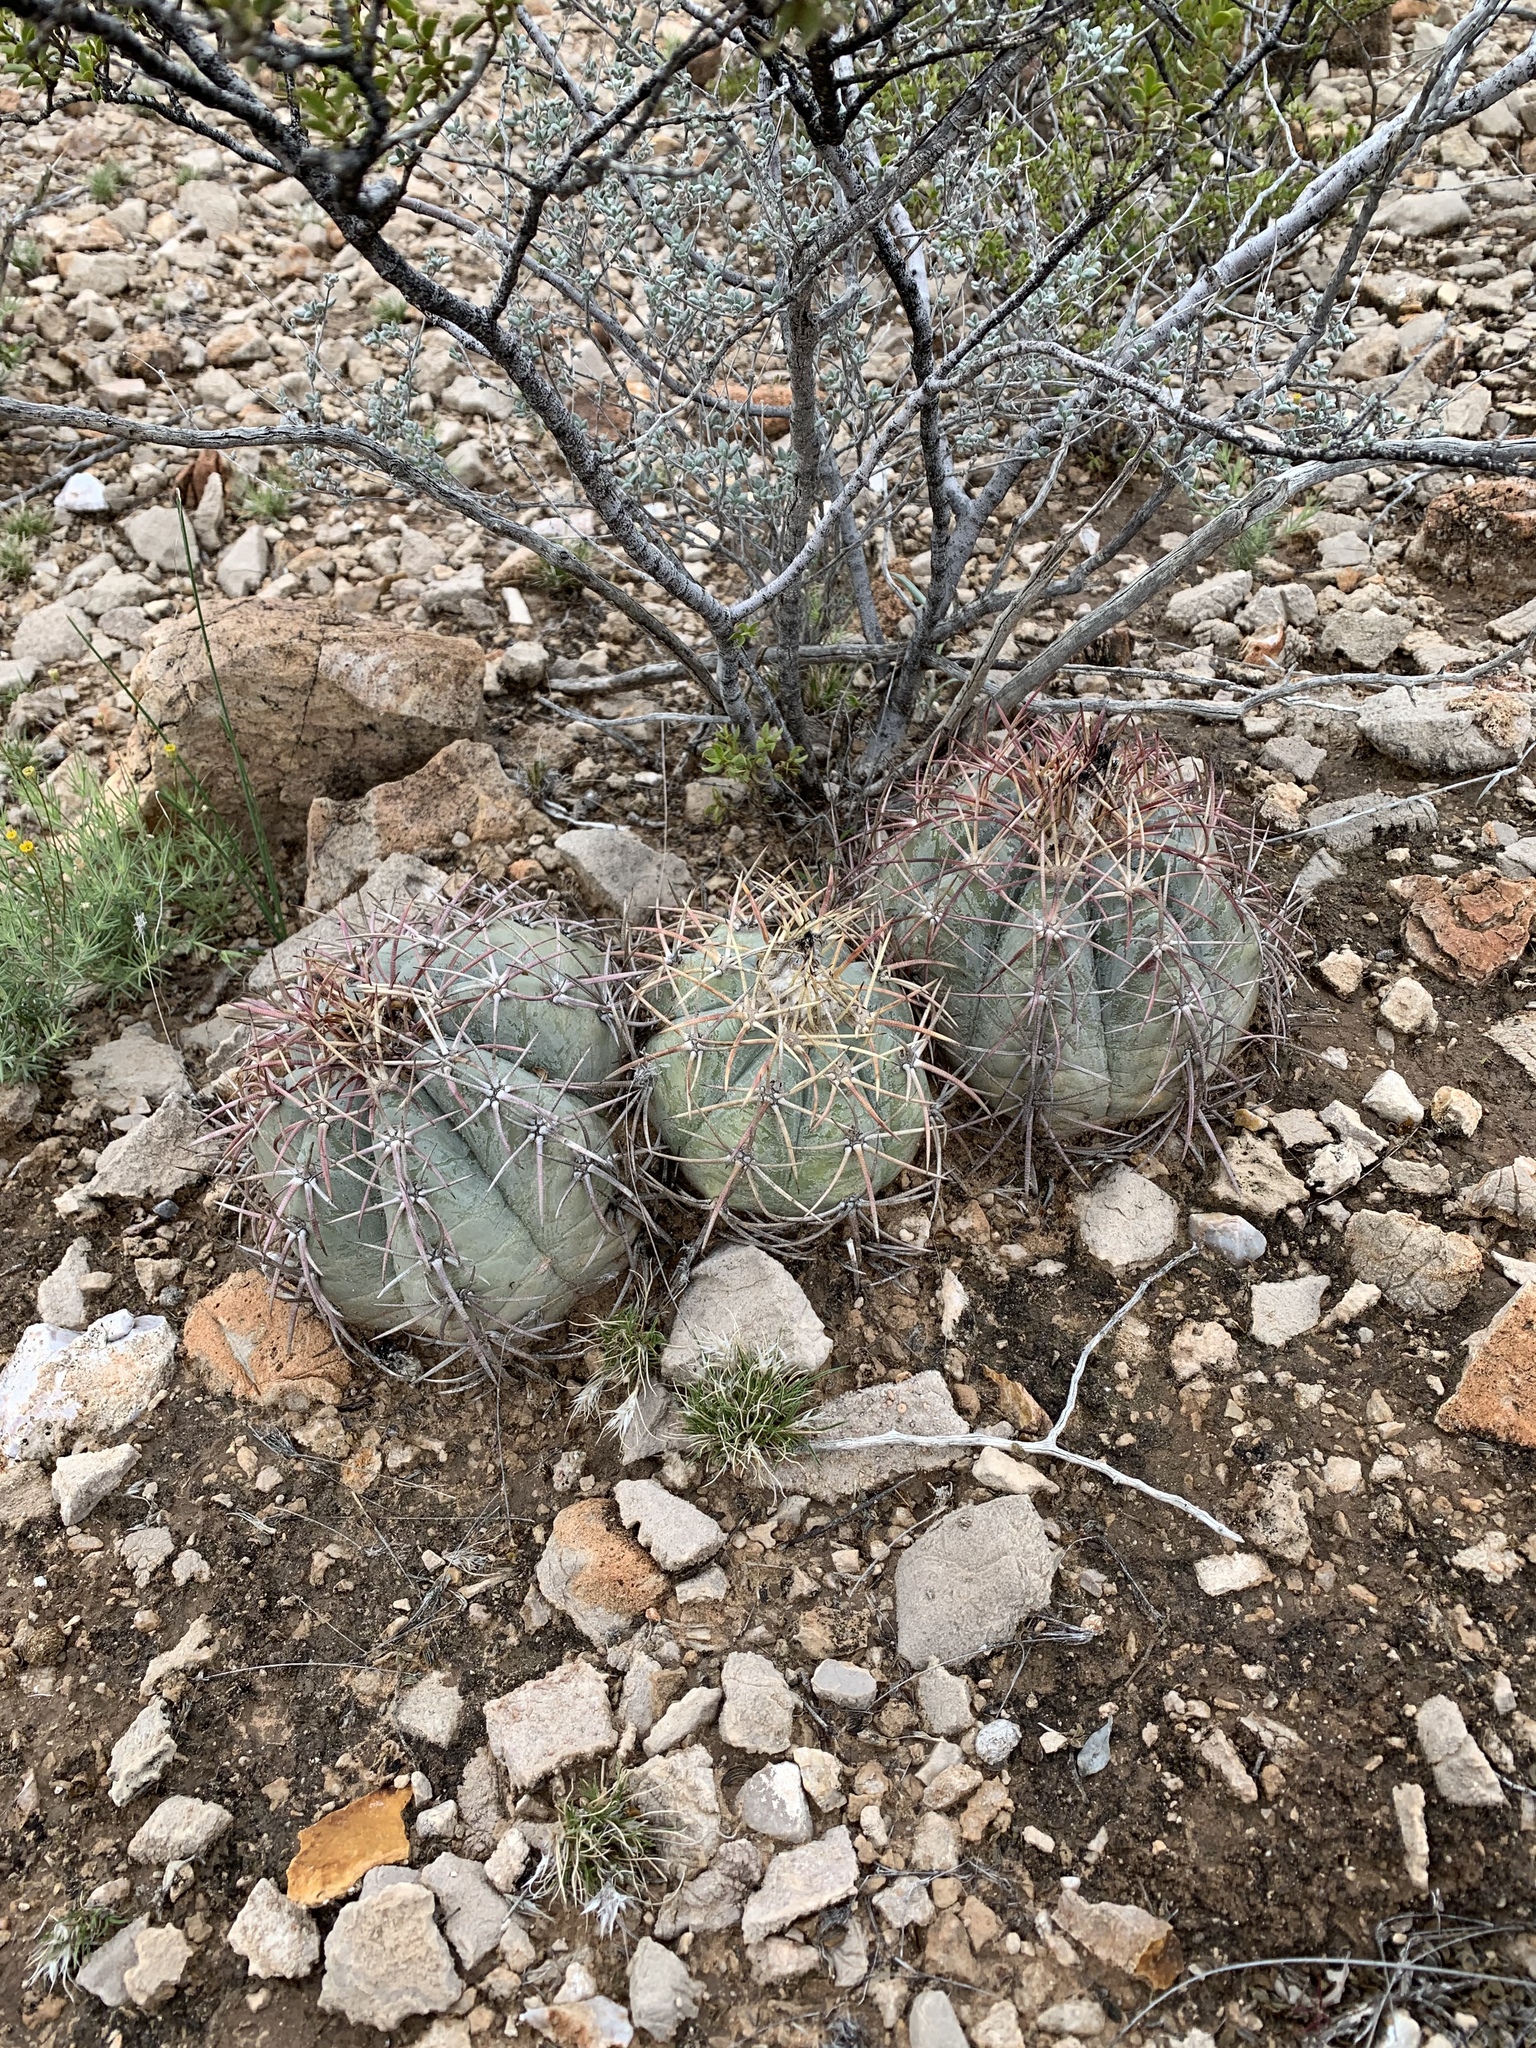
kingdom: Plantae
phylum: Tracheophyta
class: Magnoliopsida
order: Caryophyllales
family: Cactaceae
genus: Echinocactus
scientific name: Echinocactus horizonthalonius
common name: Devilshead
